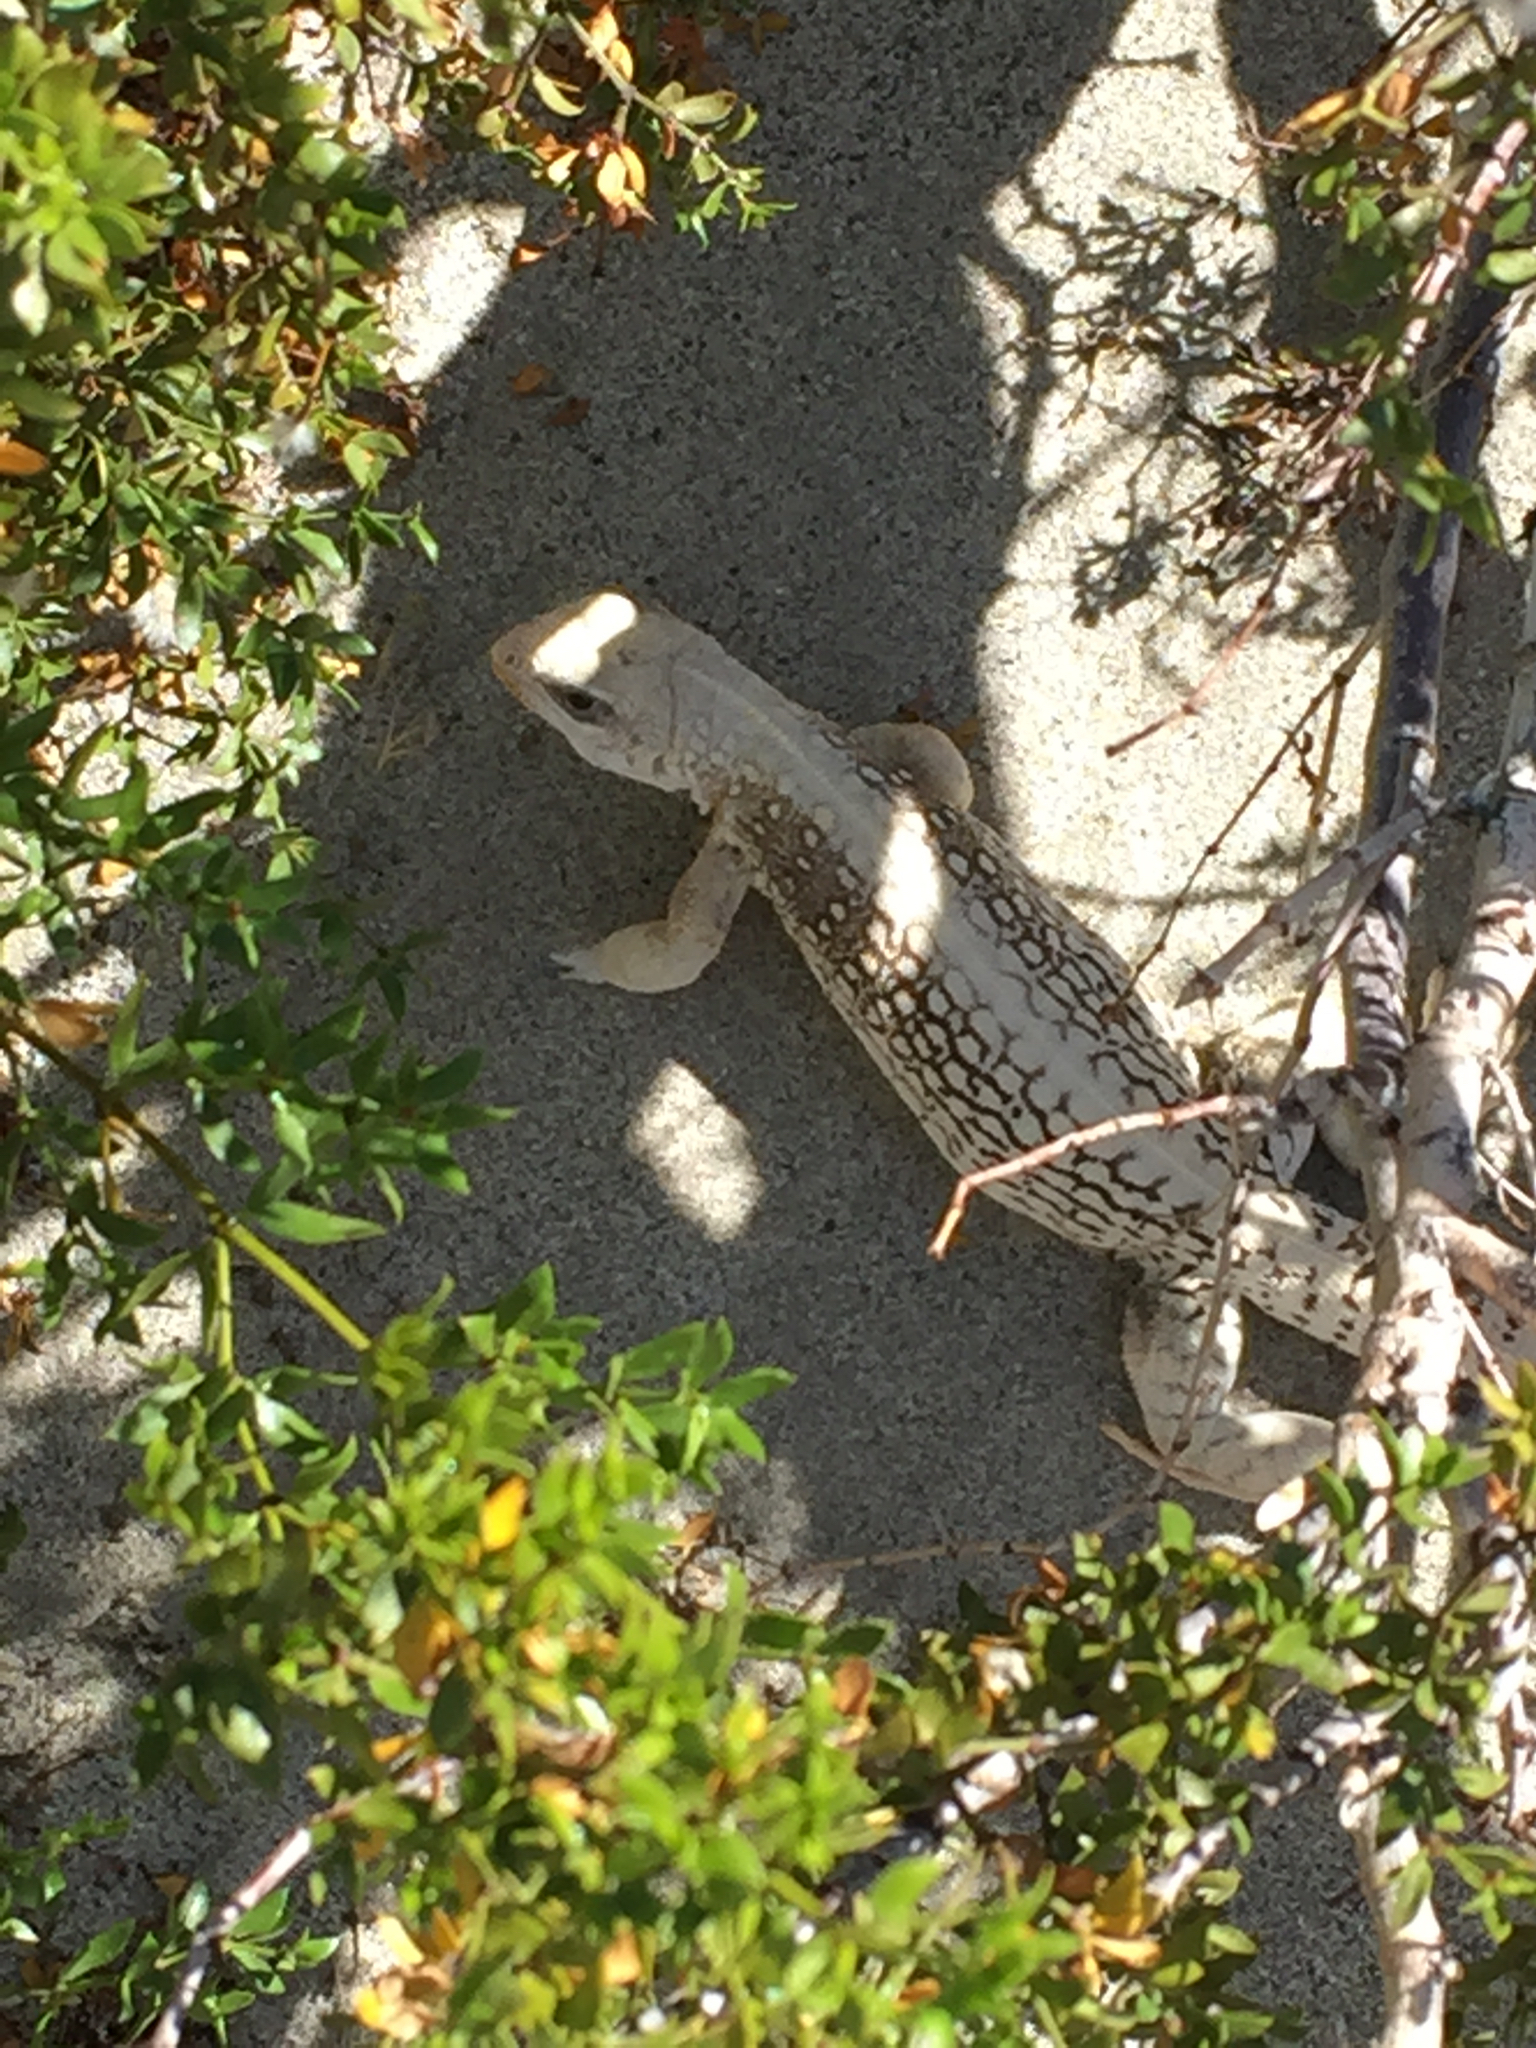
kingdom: Animalia
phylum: Chordata
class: Squamata
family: Iguanidae
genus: Dipsosaurus
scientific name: Dipsosaurus dorsalis
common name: Desert iguana
